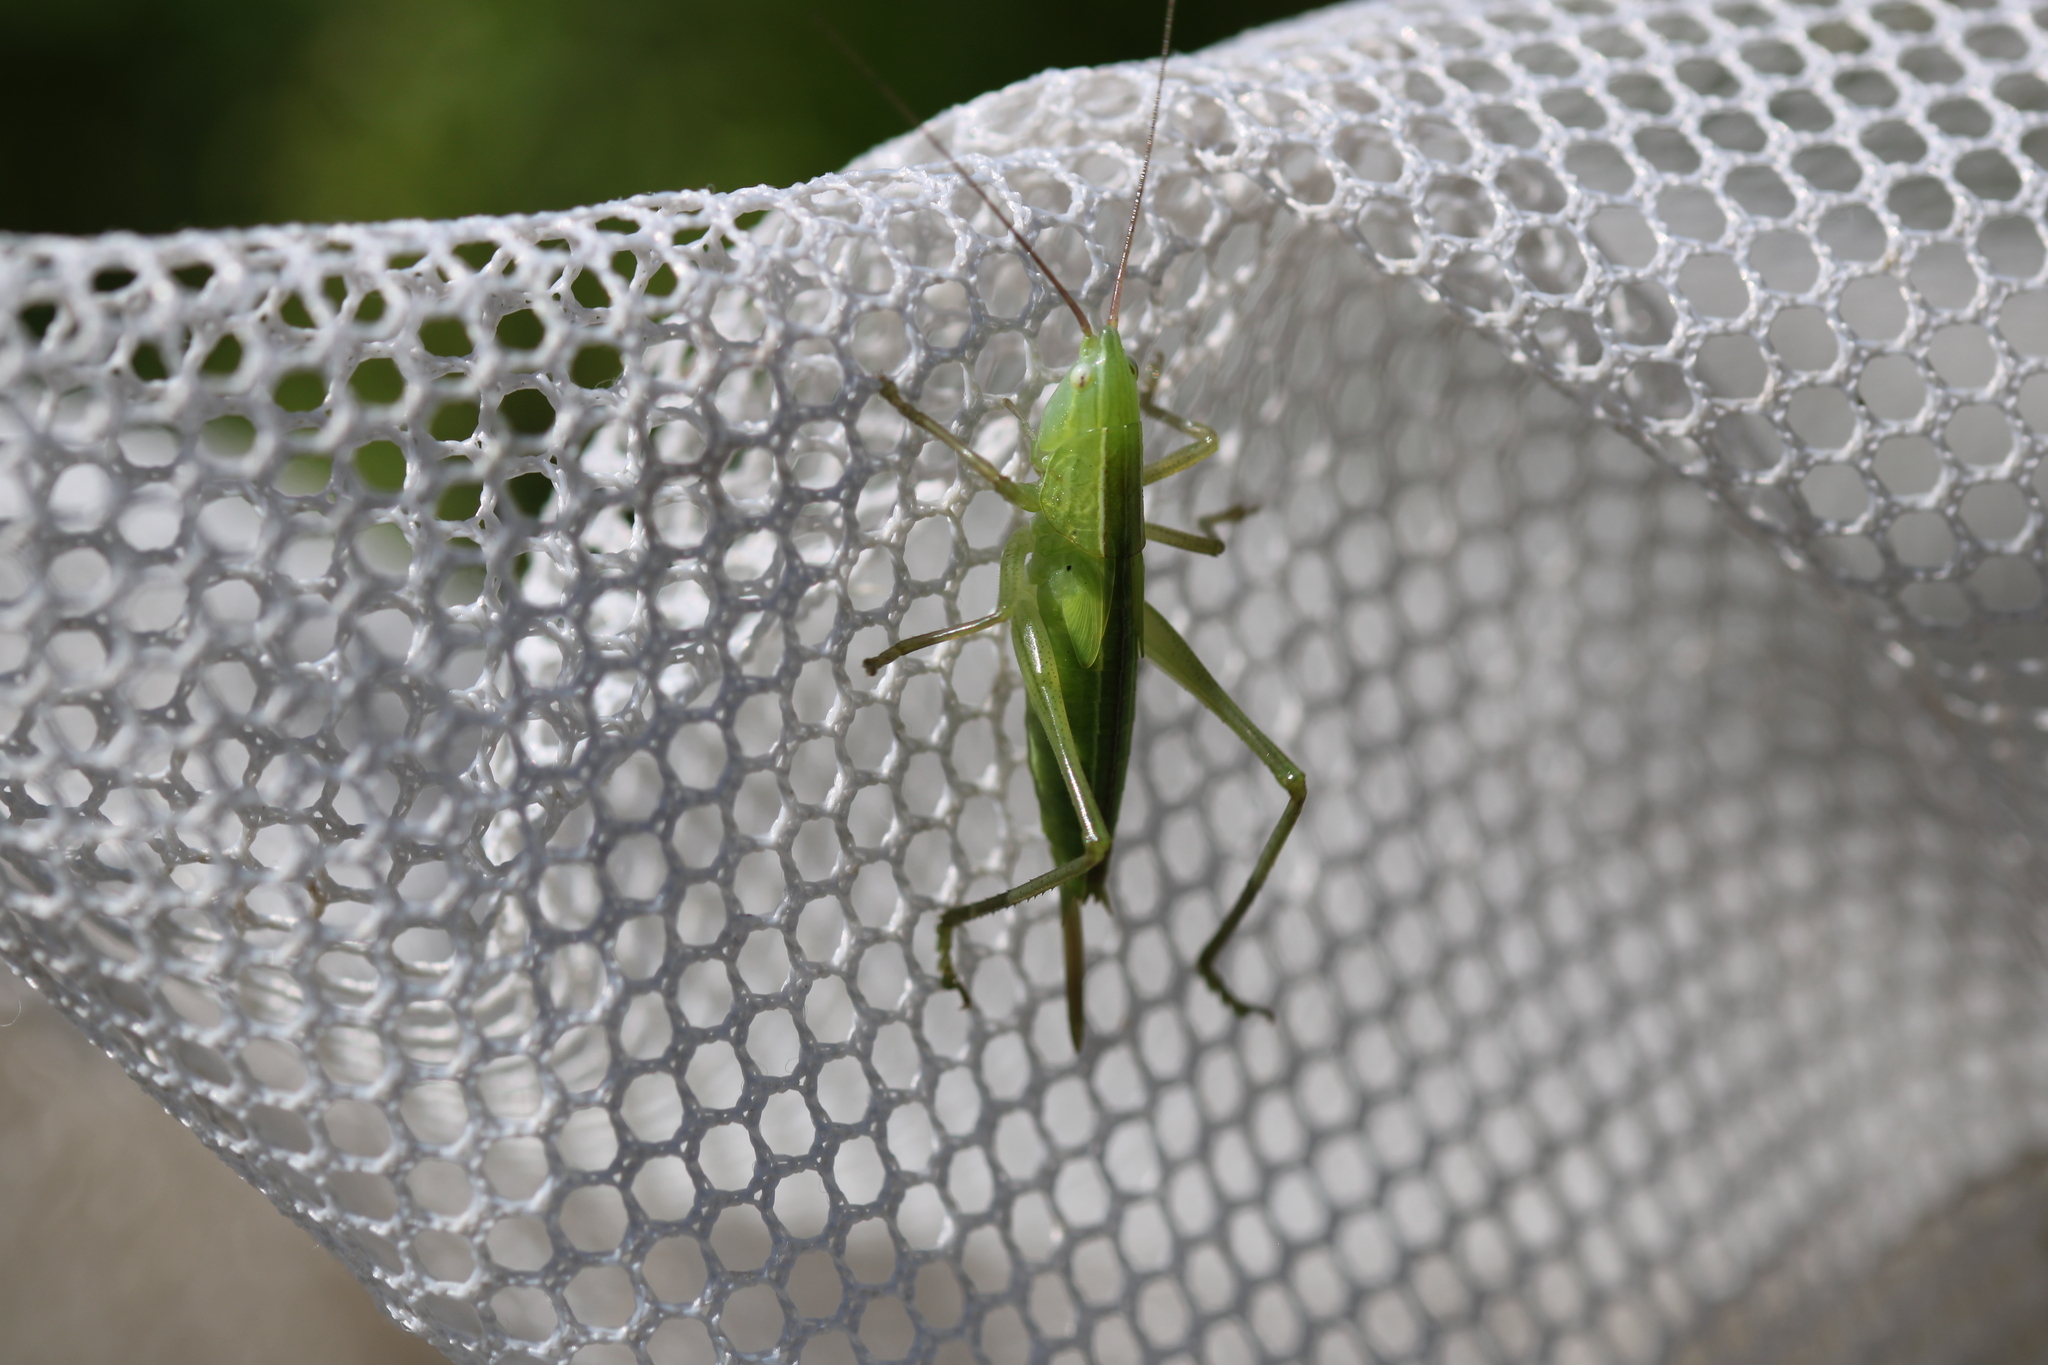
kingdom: Animalia
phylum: Arthropoda
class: Insecta
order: Orthoptera
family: Tettigoniidae
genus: Ruspolia
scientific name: Ruspolia nitidula
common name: Large conehead
